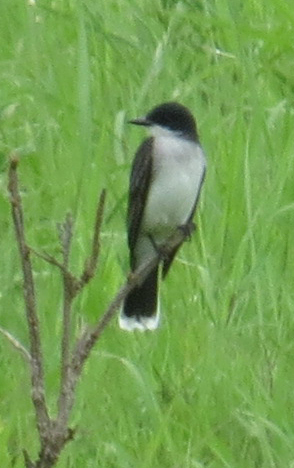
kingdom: Animalia
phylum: Chordata
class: Aves
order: Passeriformes
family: Tyrannidae
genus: Tyrannus
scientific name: Tyrannus tyrannus
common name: Eastern kingbird
